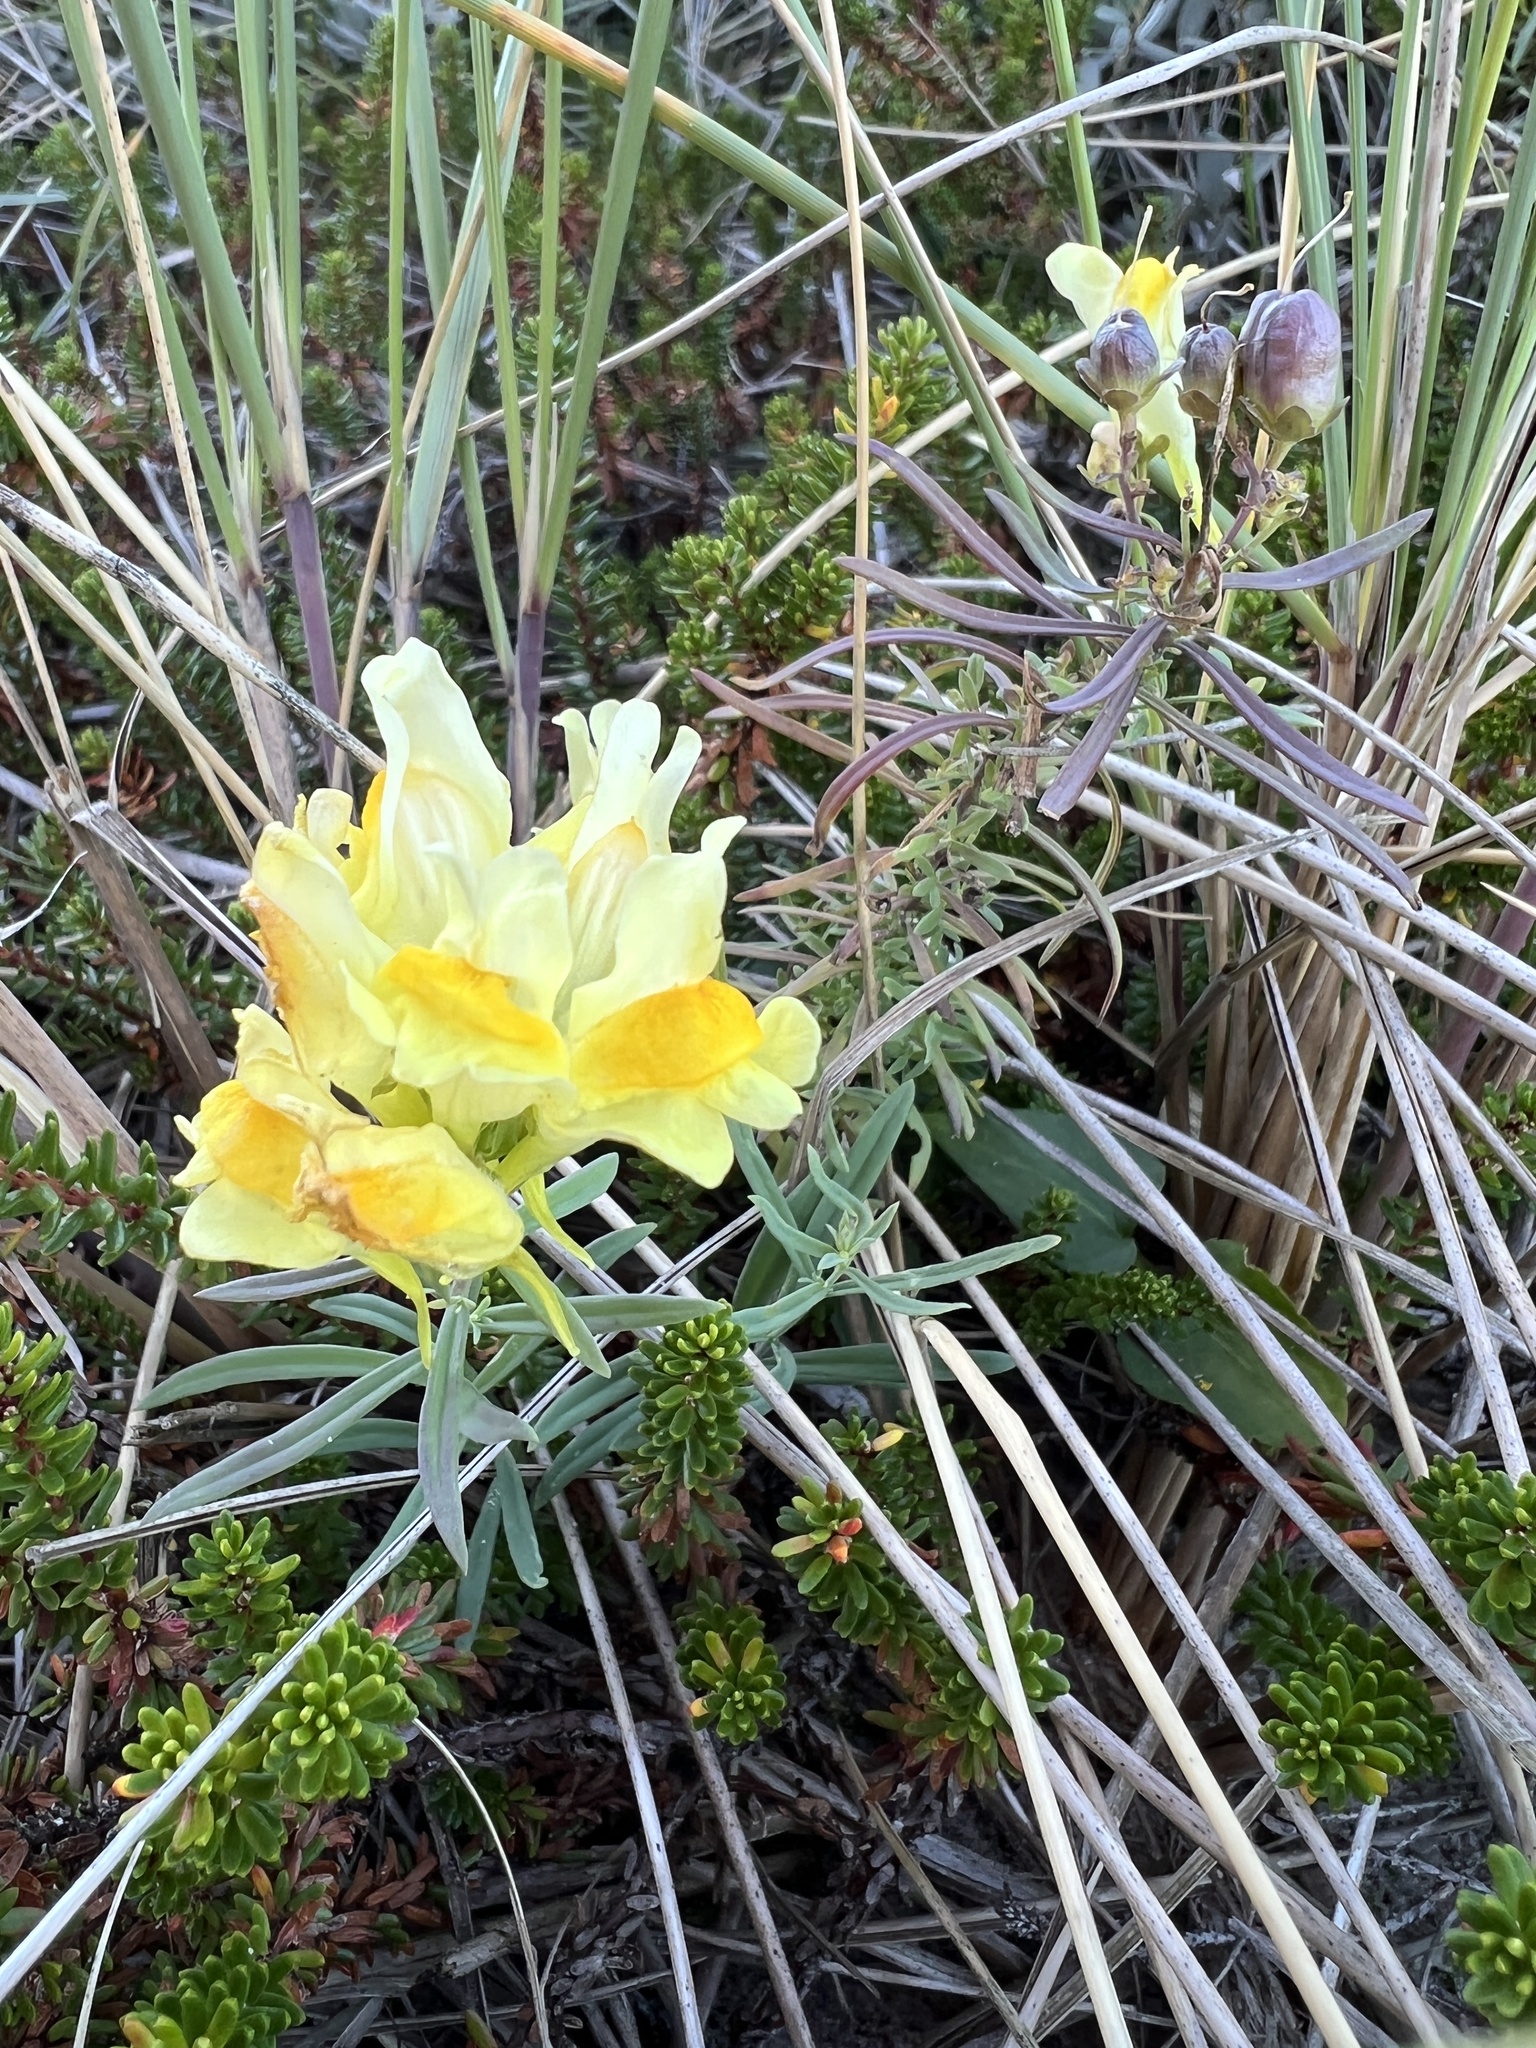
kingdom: Plantae
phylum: Tracheophyta
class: Magnoliopsida
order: Lamiales
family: Plantaginaceae
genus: Linaria
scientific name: Linaria vulgaris
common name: Butter and eggs
